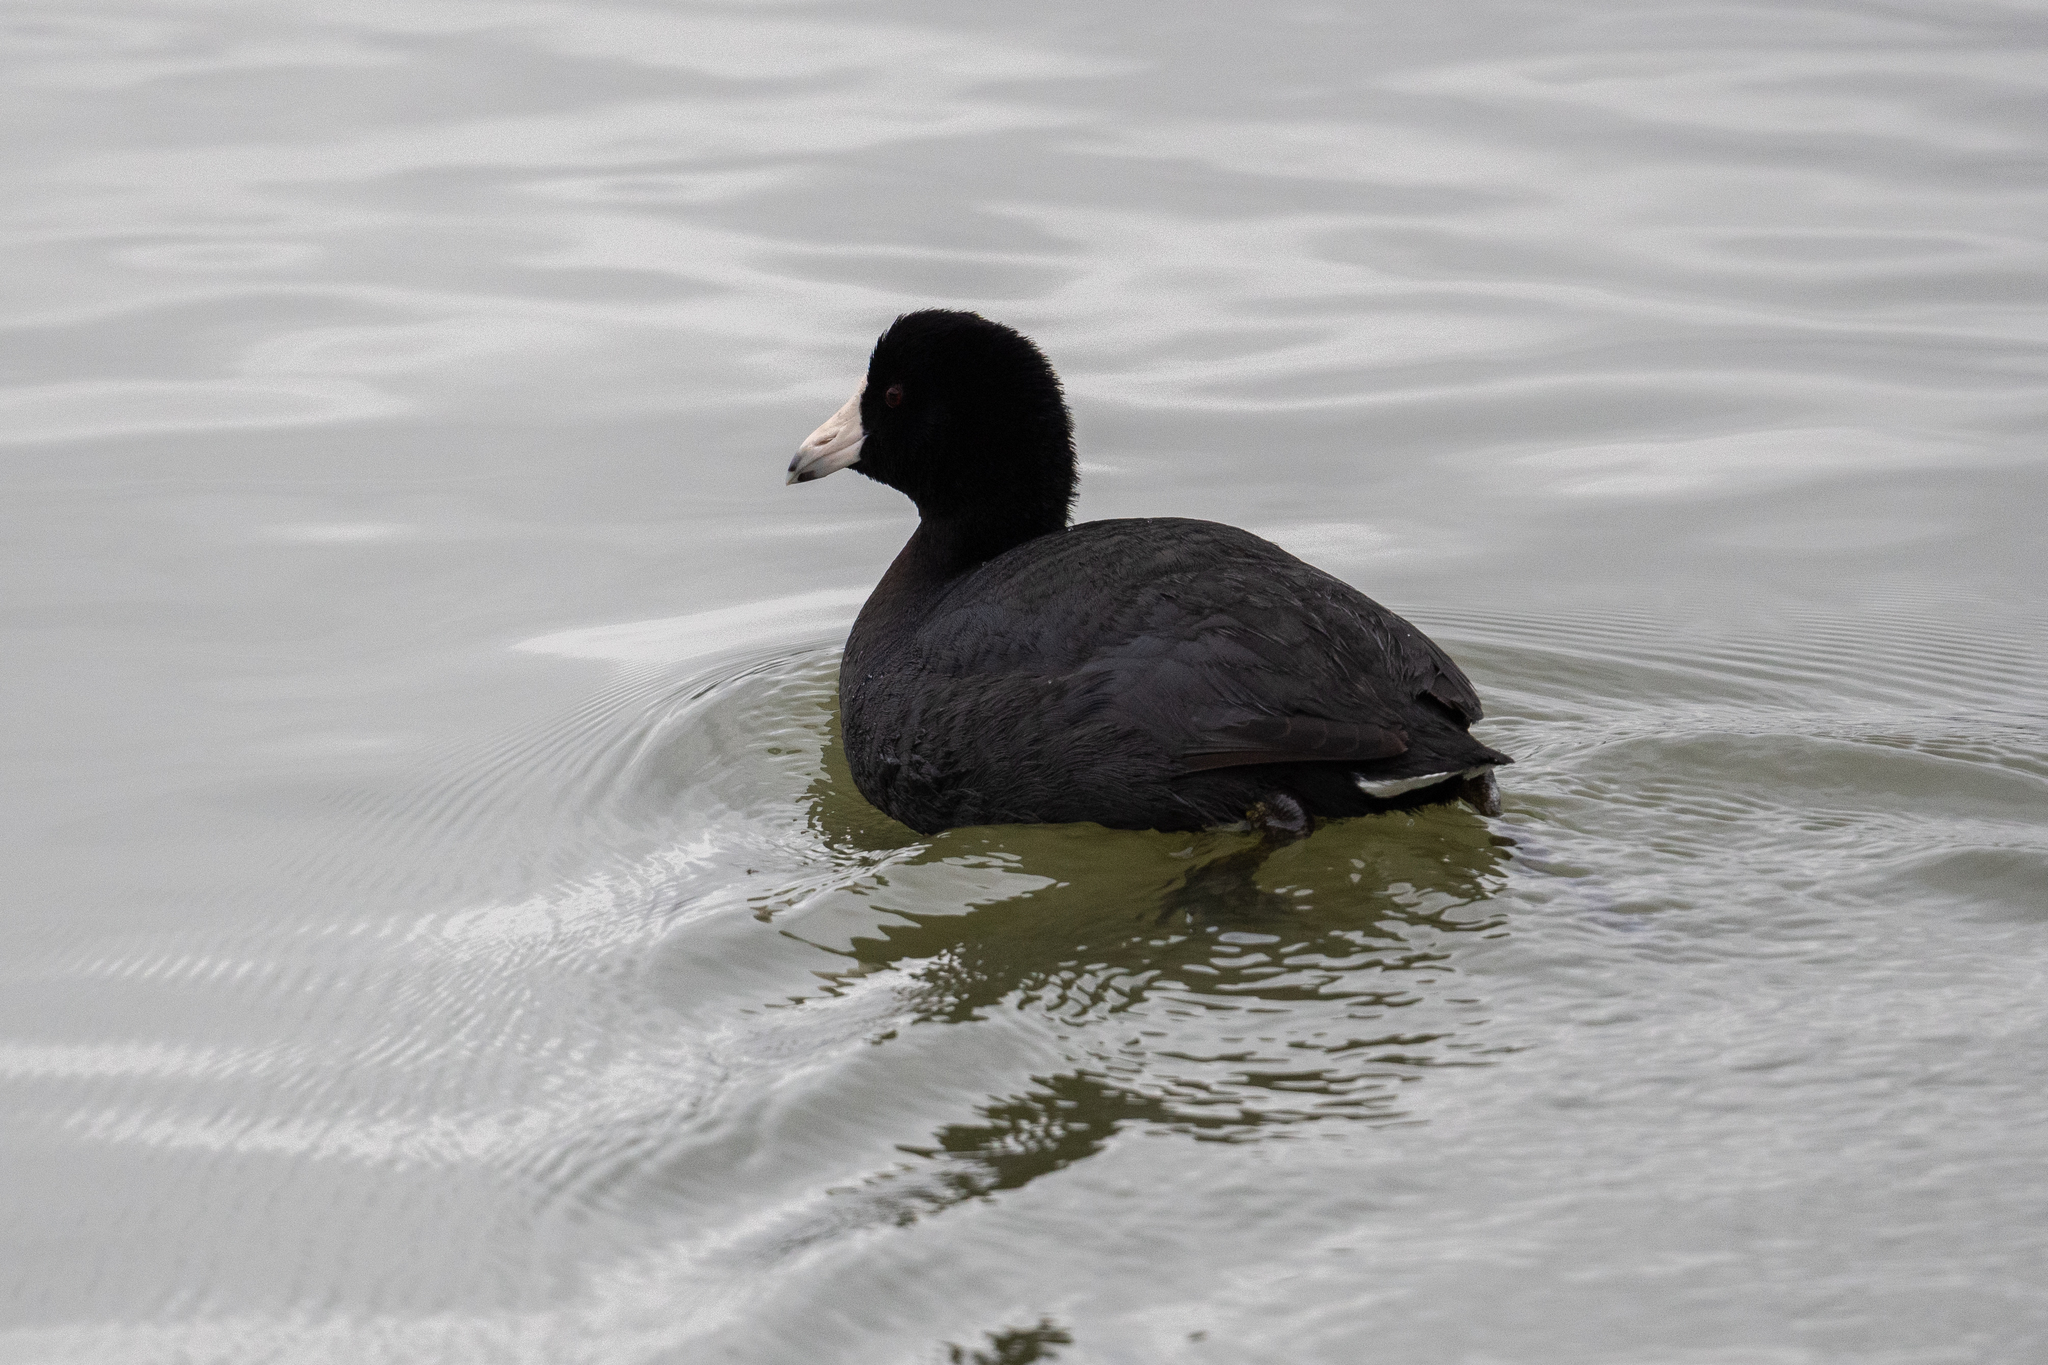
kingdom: Animalia
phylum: Chordata
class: Aves
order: Gruiformes
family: Rallidae
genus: Fulica
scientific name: Fulica americana
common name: American coot
